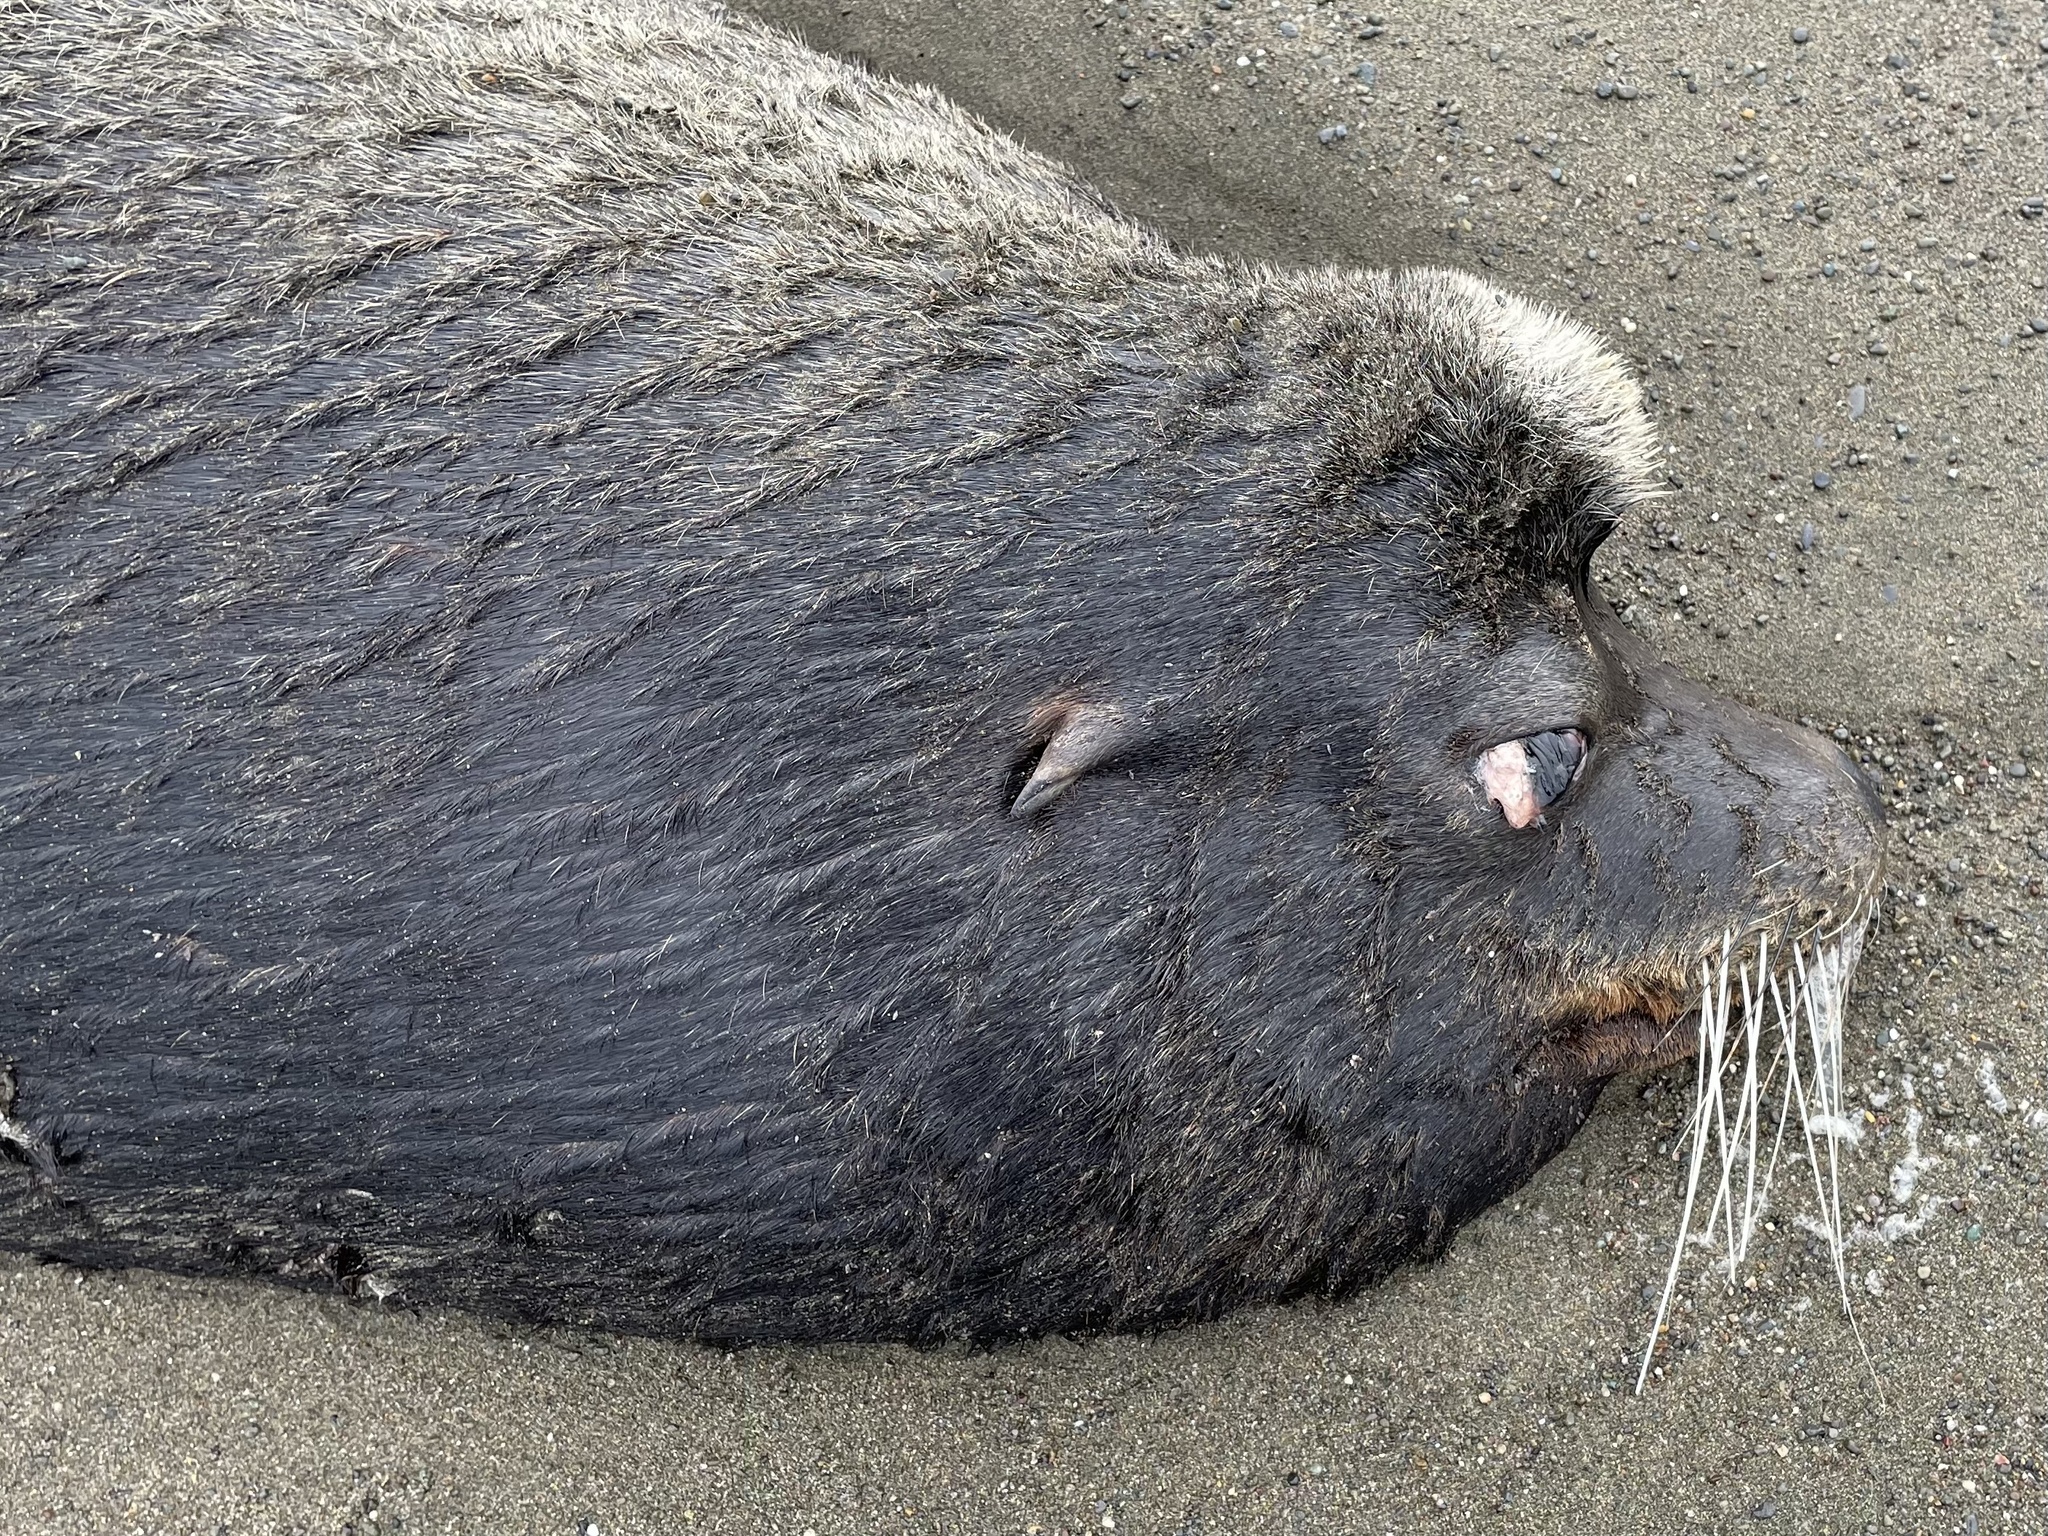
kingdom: Animalia
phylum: Chordata
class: Mammalia
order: Carnivora
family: Otariidae
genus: Zalophus
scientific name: Zalophus californianus
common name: California sea lion
